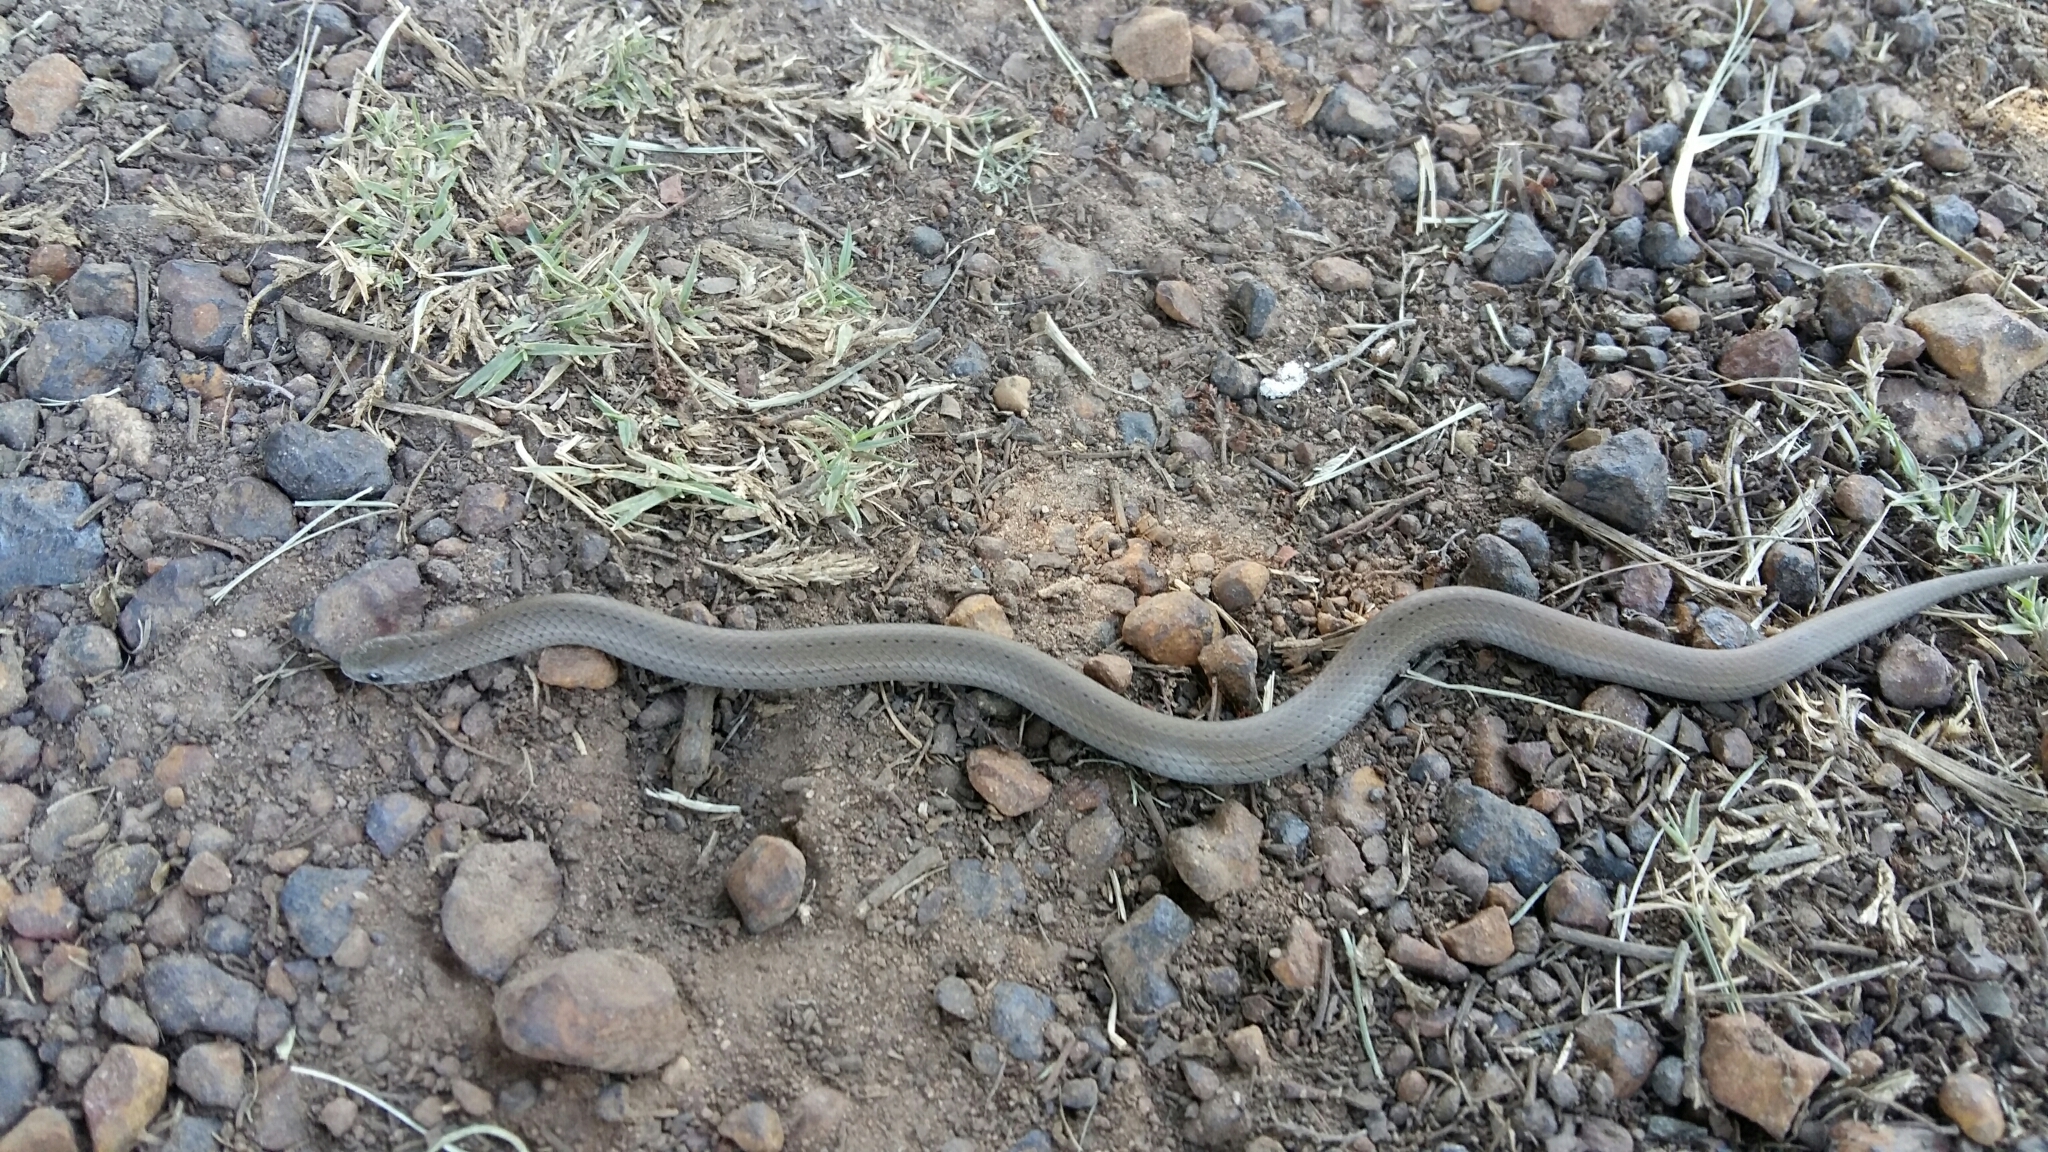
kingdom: Animalia
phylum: Chordata
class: Squamata
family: Pseudoxyrhophiidae
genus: Duberria
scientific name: Duberria lutrix
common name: Common slug eater
